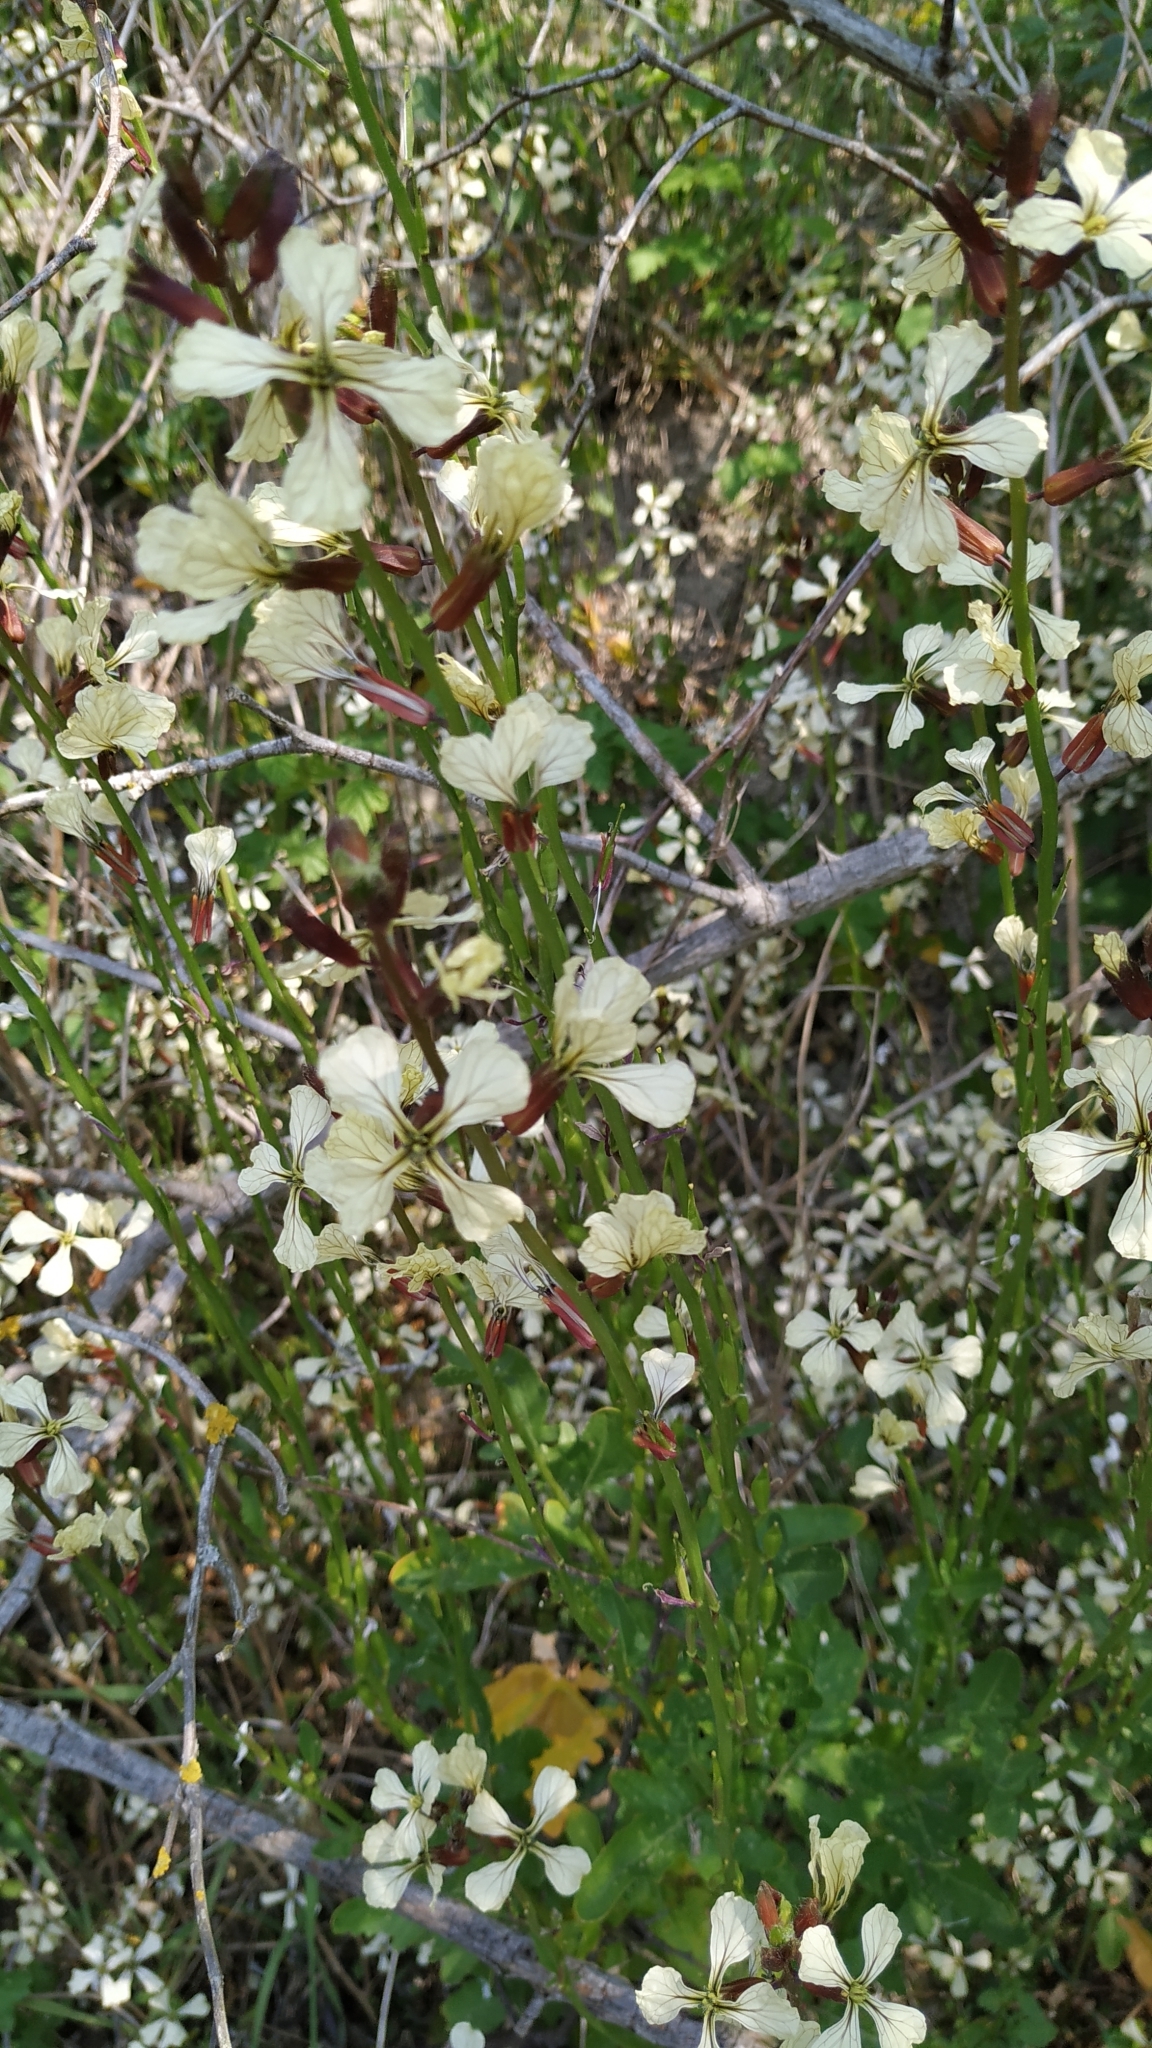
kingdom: Plantae
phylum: Tracheophyta
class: Magnoliopsida
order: Brassicales
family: Brassicaceae
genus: Eruca
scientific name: Eruca vesicaria
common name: Garden rocket
